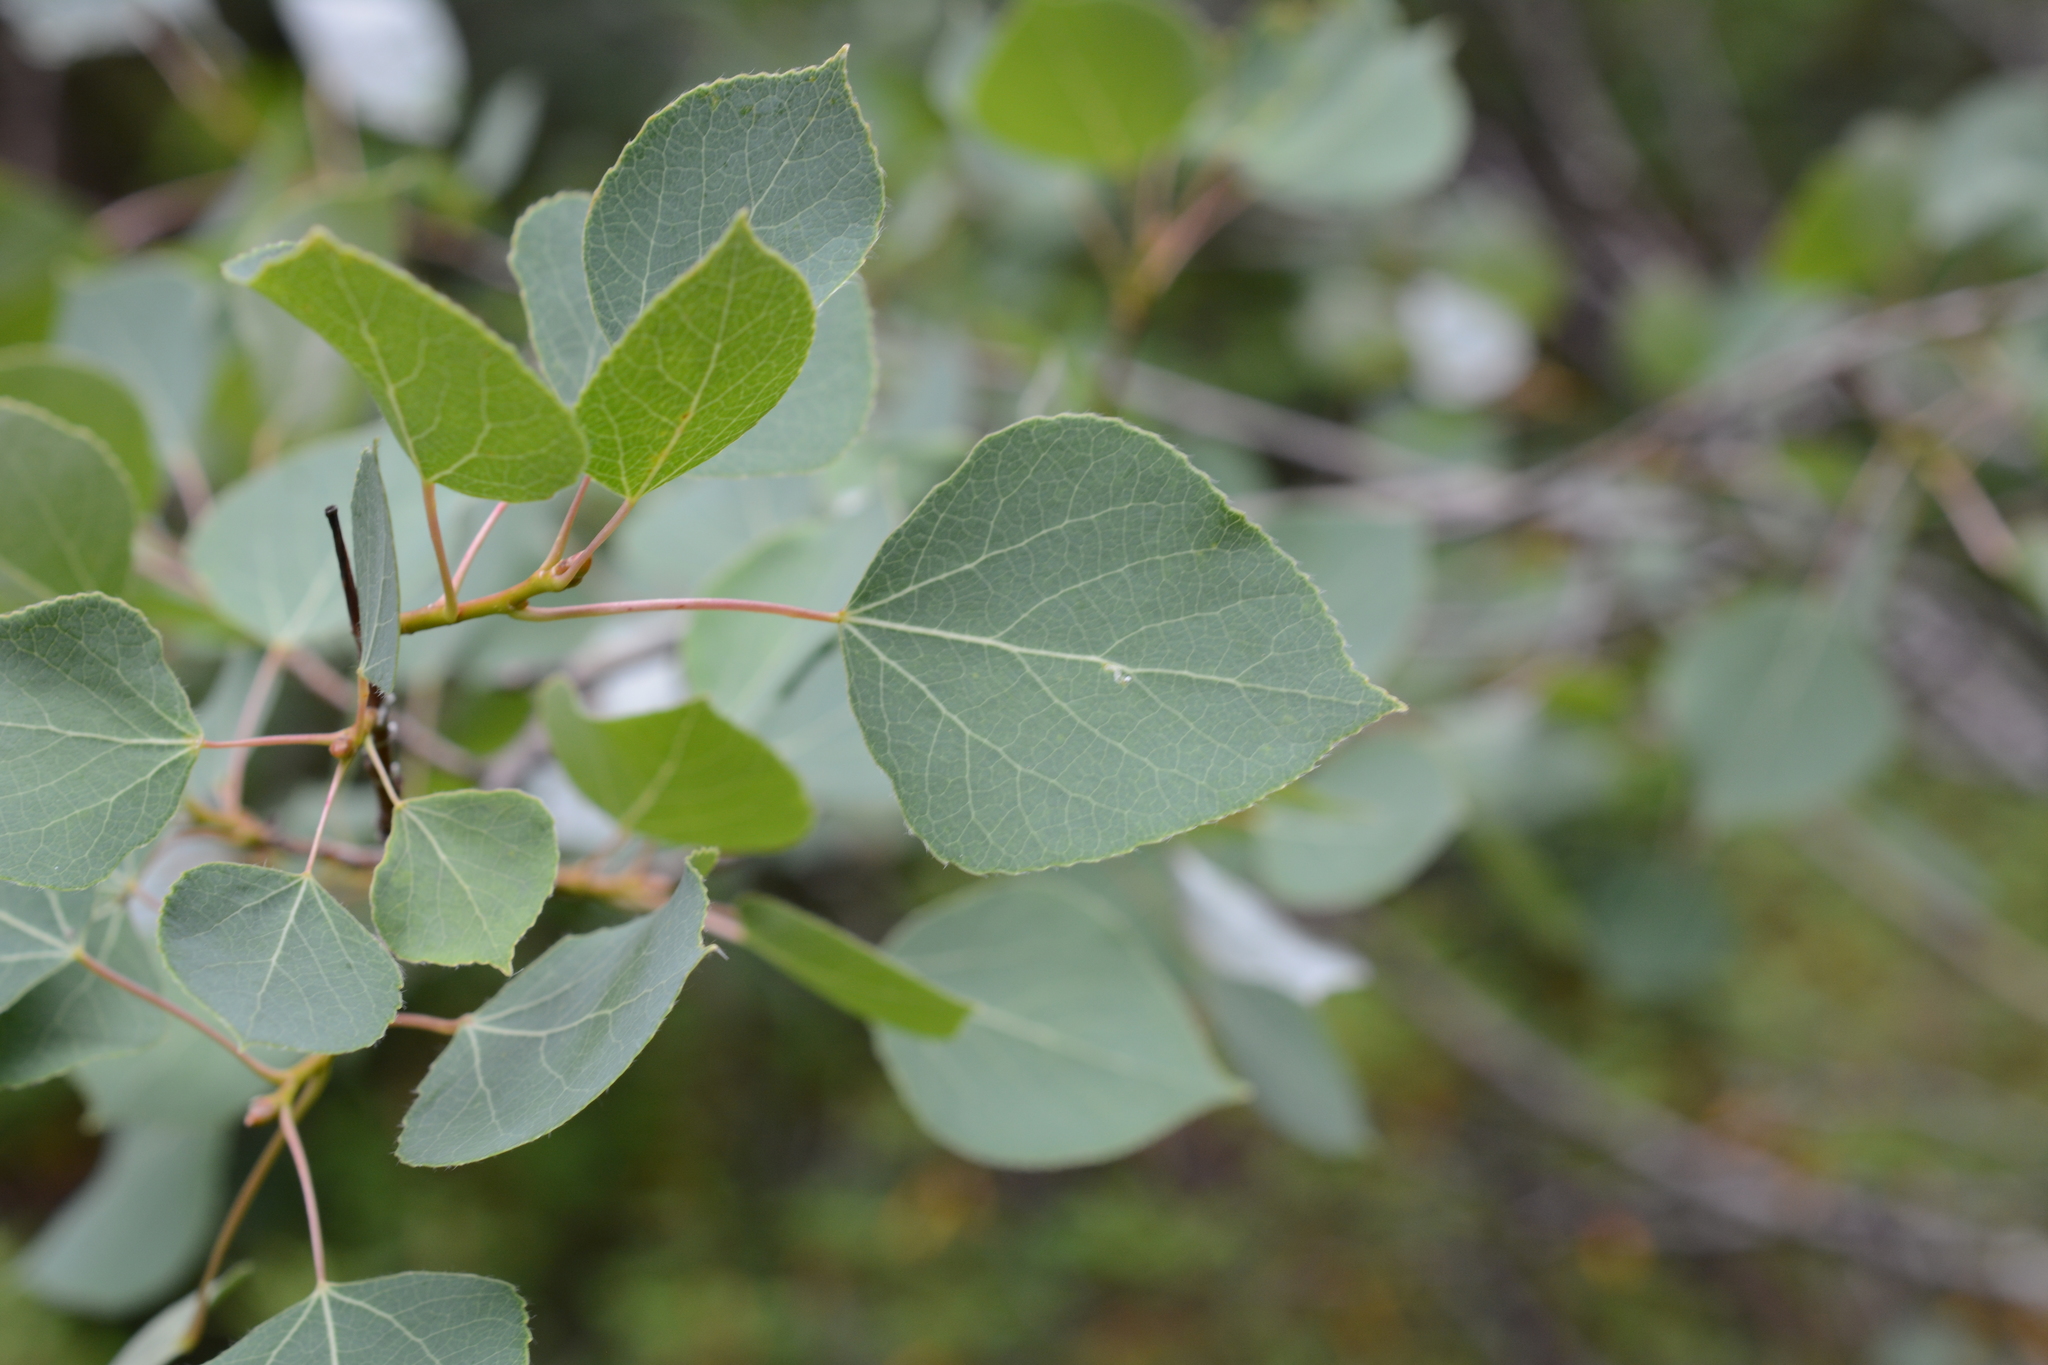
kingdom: Plantae
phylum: Tracheophyta
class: Magnoliopsida
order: Malpighiales
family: Salicaceae
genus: Populus
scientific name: Populus tremuloides
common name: Quaking aspen
